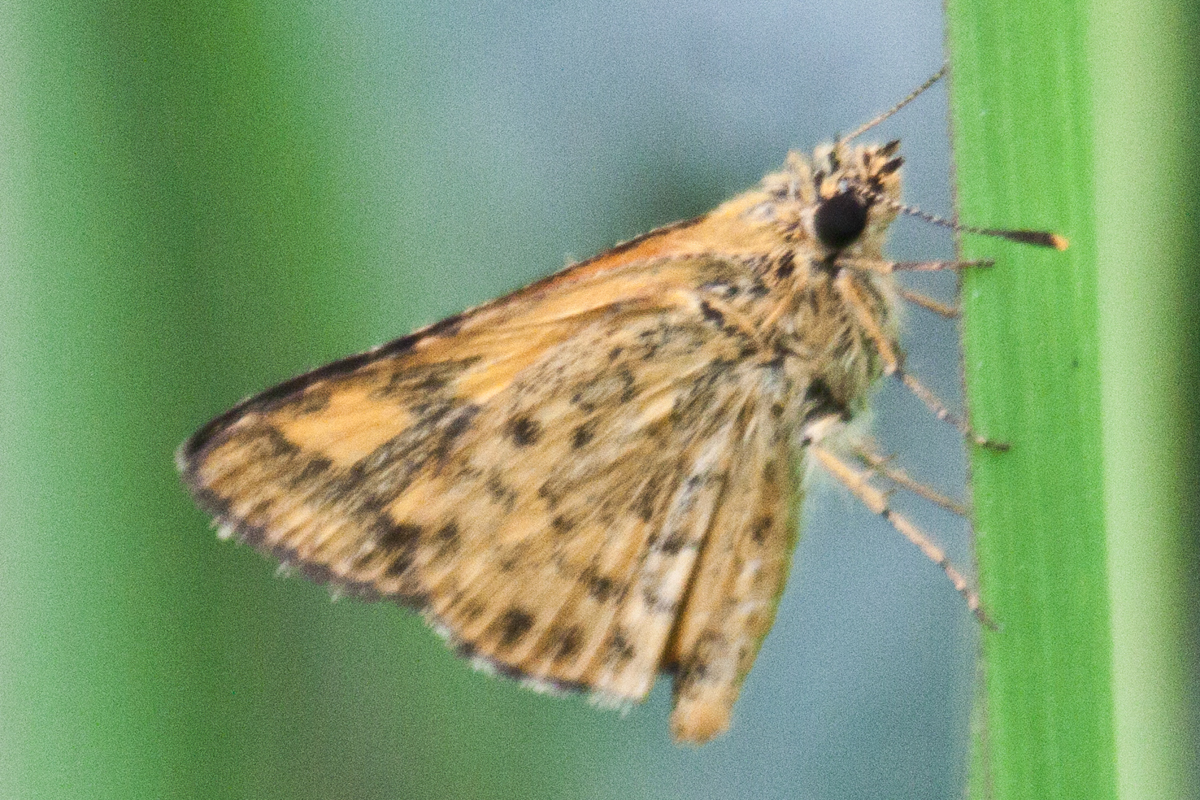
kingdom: Animalia
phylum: Arthropoda
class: Insecta
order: Lepidoptera
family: Hesperiidae
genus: Ampittia
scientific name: Ampittia dioscorides
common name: Common bush hopper
